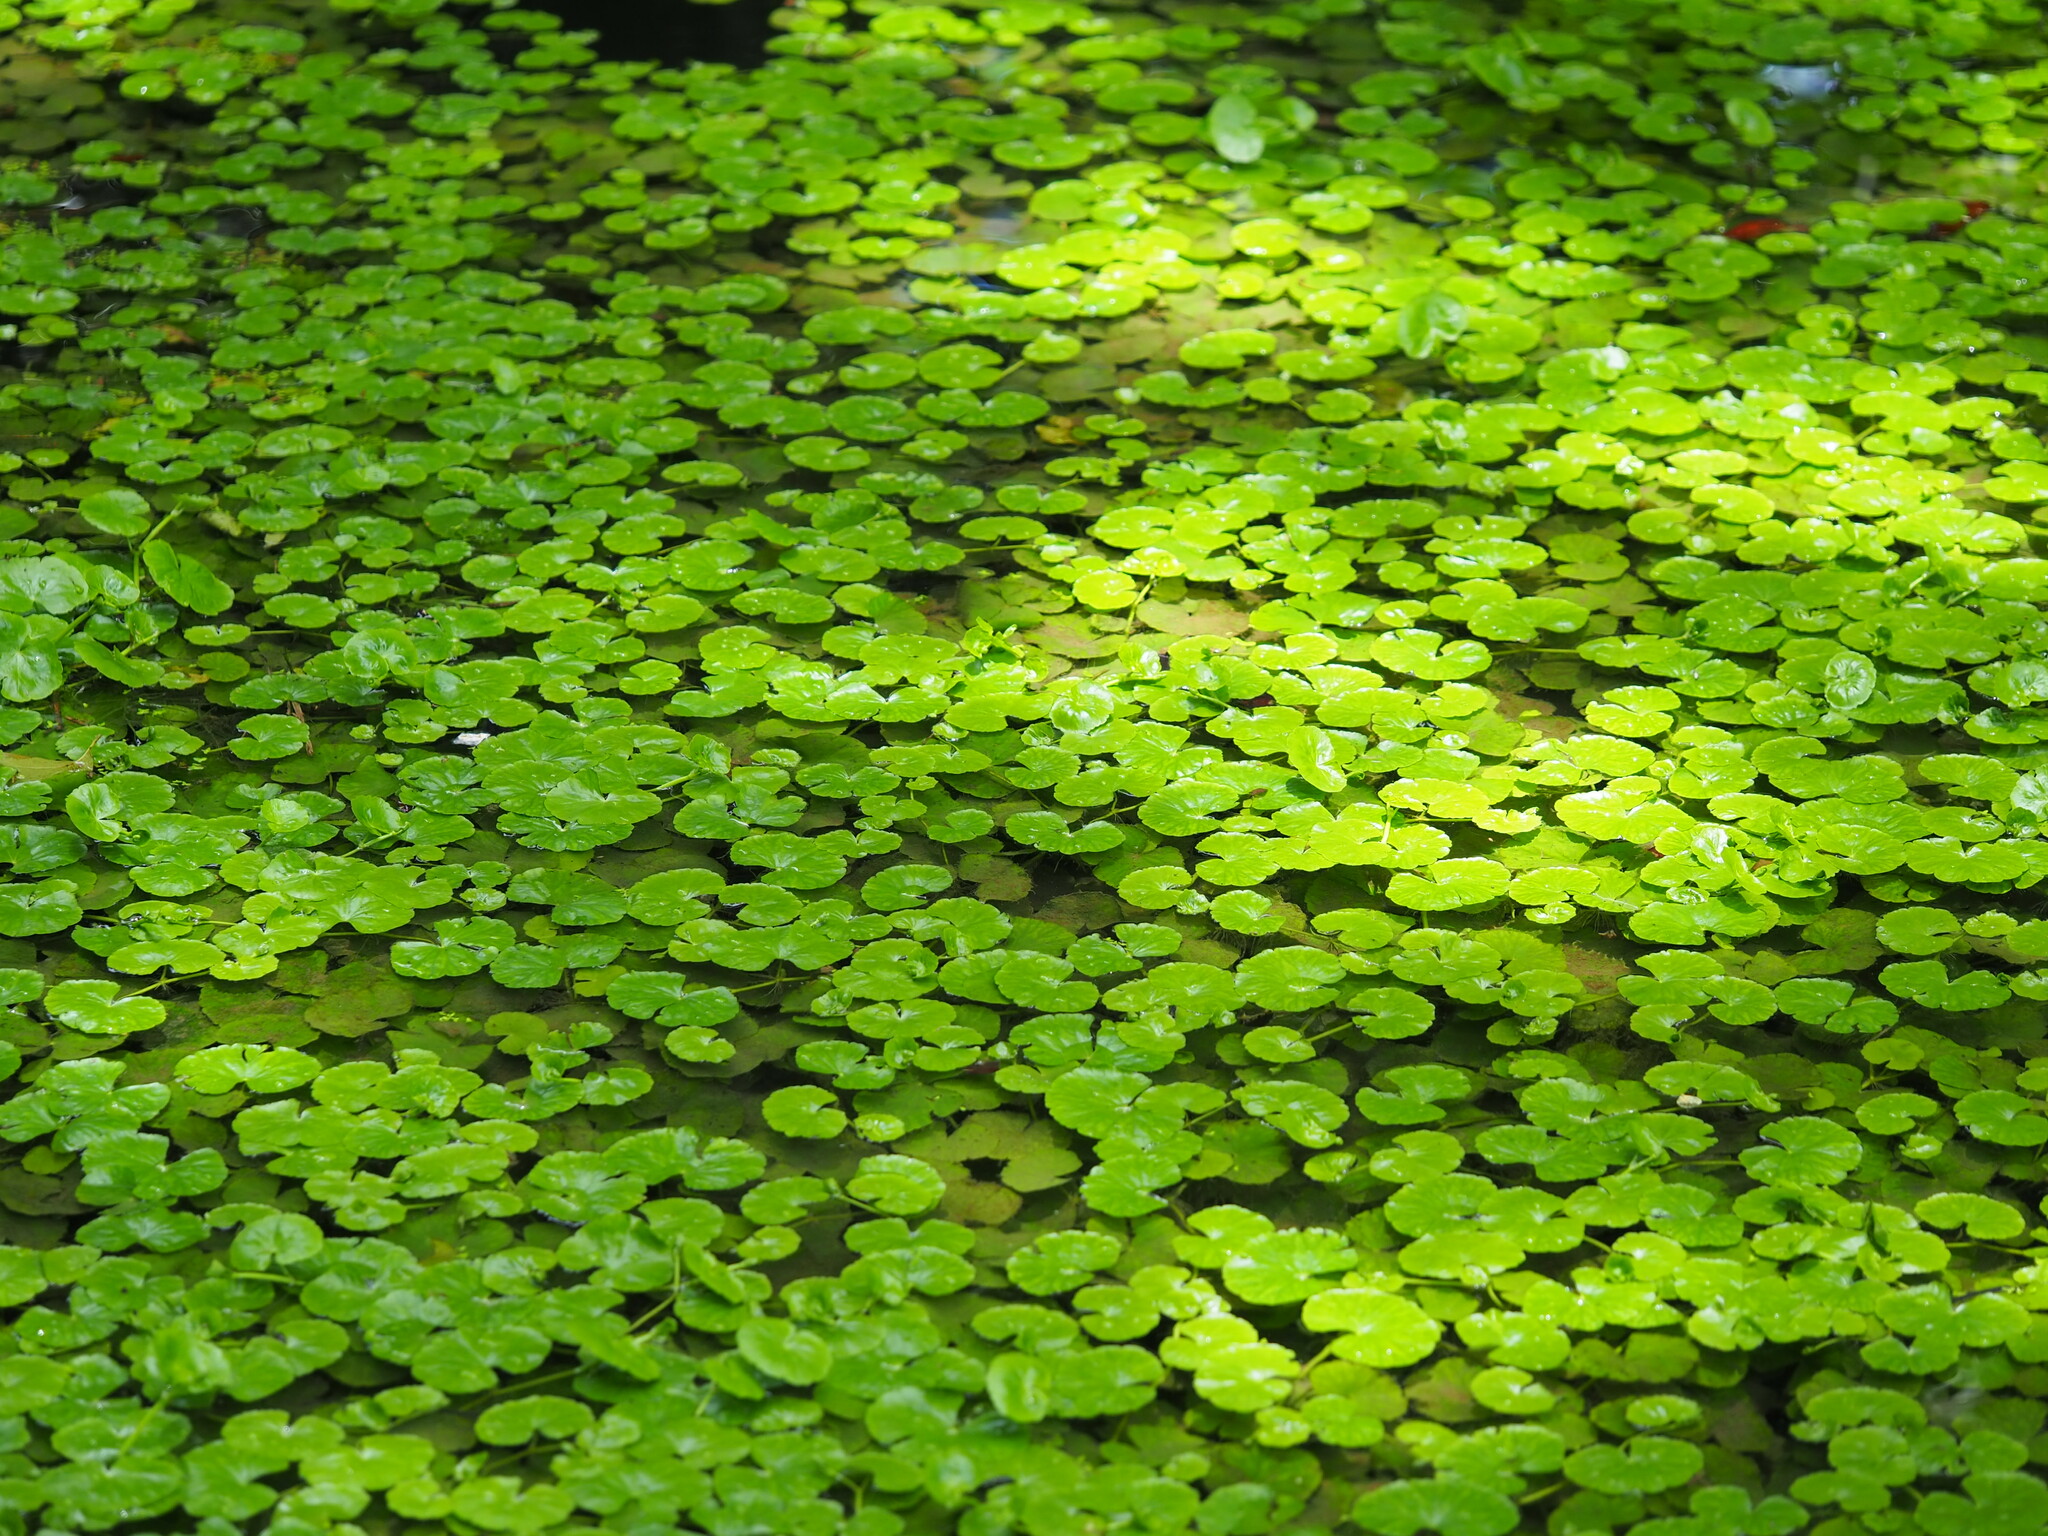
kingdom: Plantae
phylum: Tracheophyta
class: Magnoliopsida
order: Apiales
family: Araliaceae
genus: Hydrocotyle
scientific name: Hydrocotyle ranunculoides
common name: Floating pennywort
